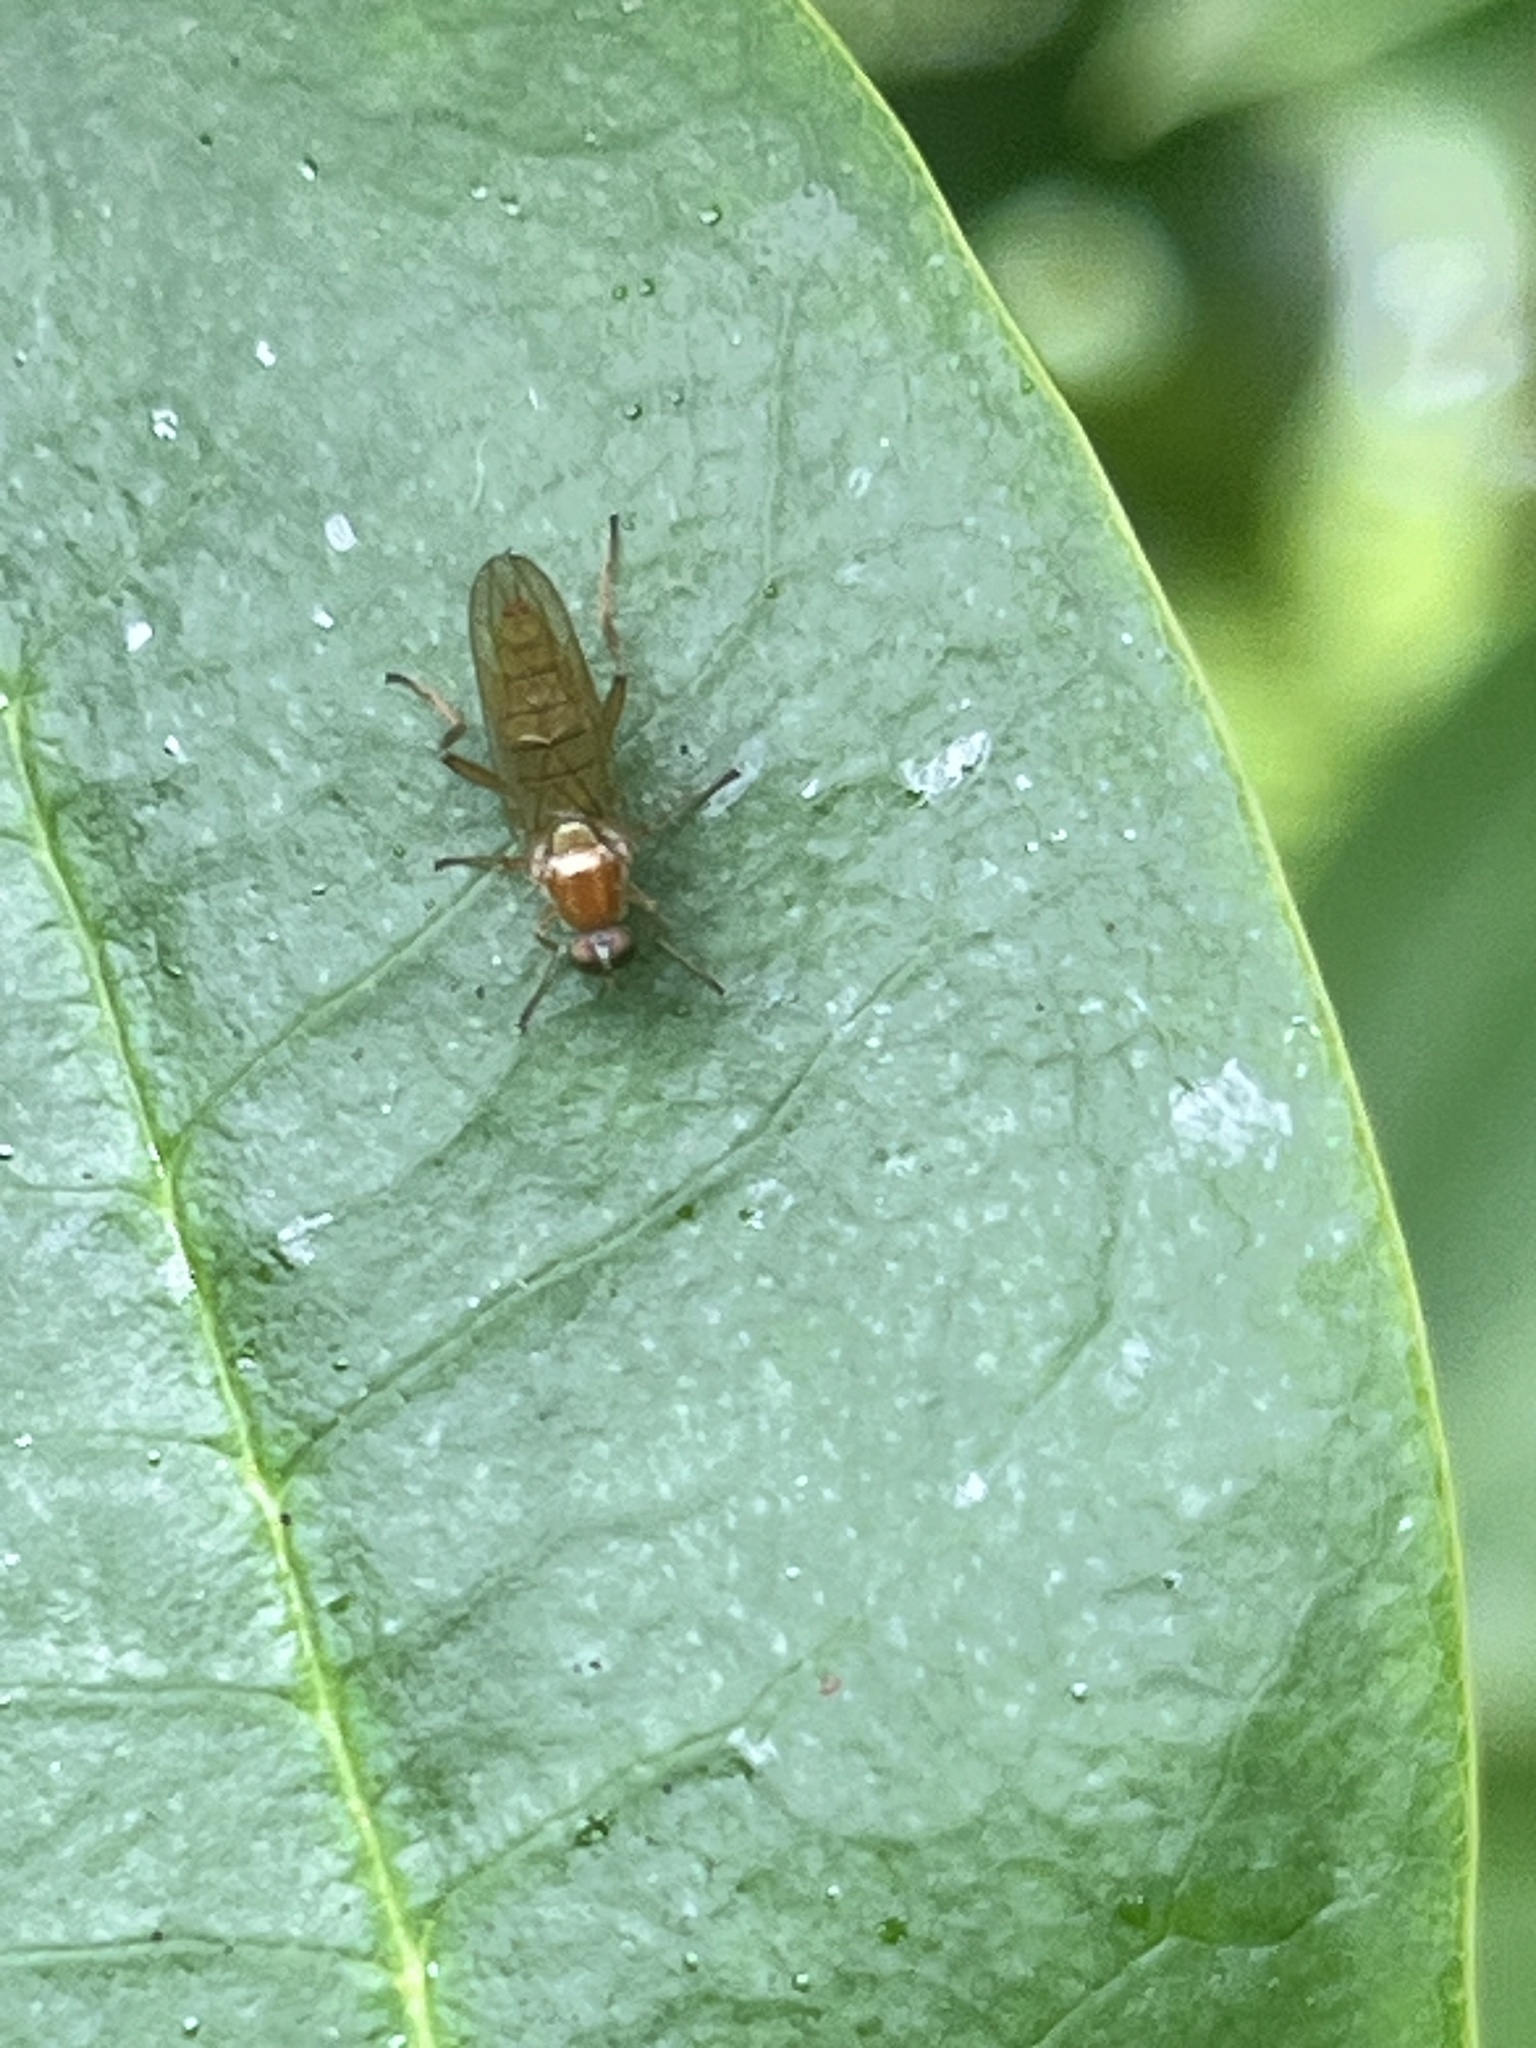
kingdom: Animalia
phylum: Arthropoda
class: Insecta
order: Diptera
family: Stratiomyidae
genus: Australoberis
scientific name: Australoberis refugians
